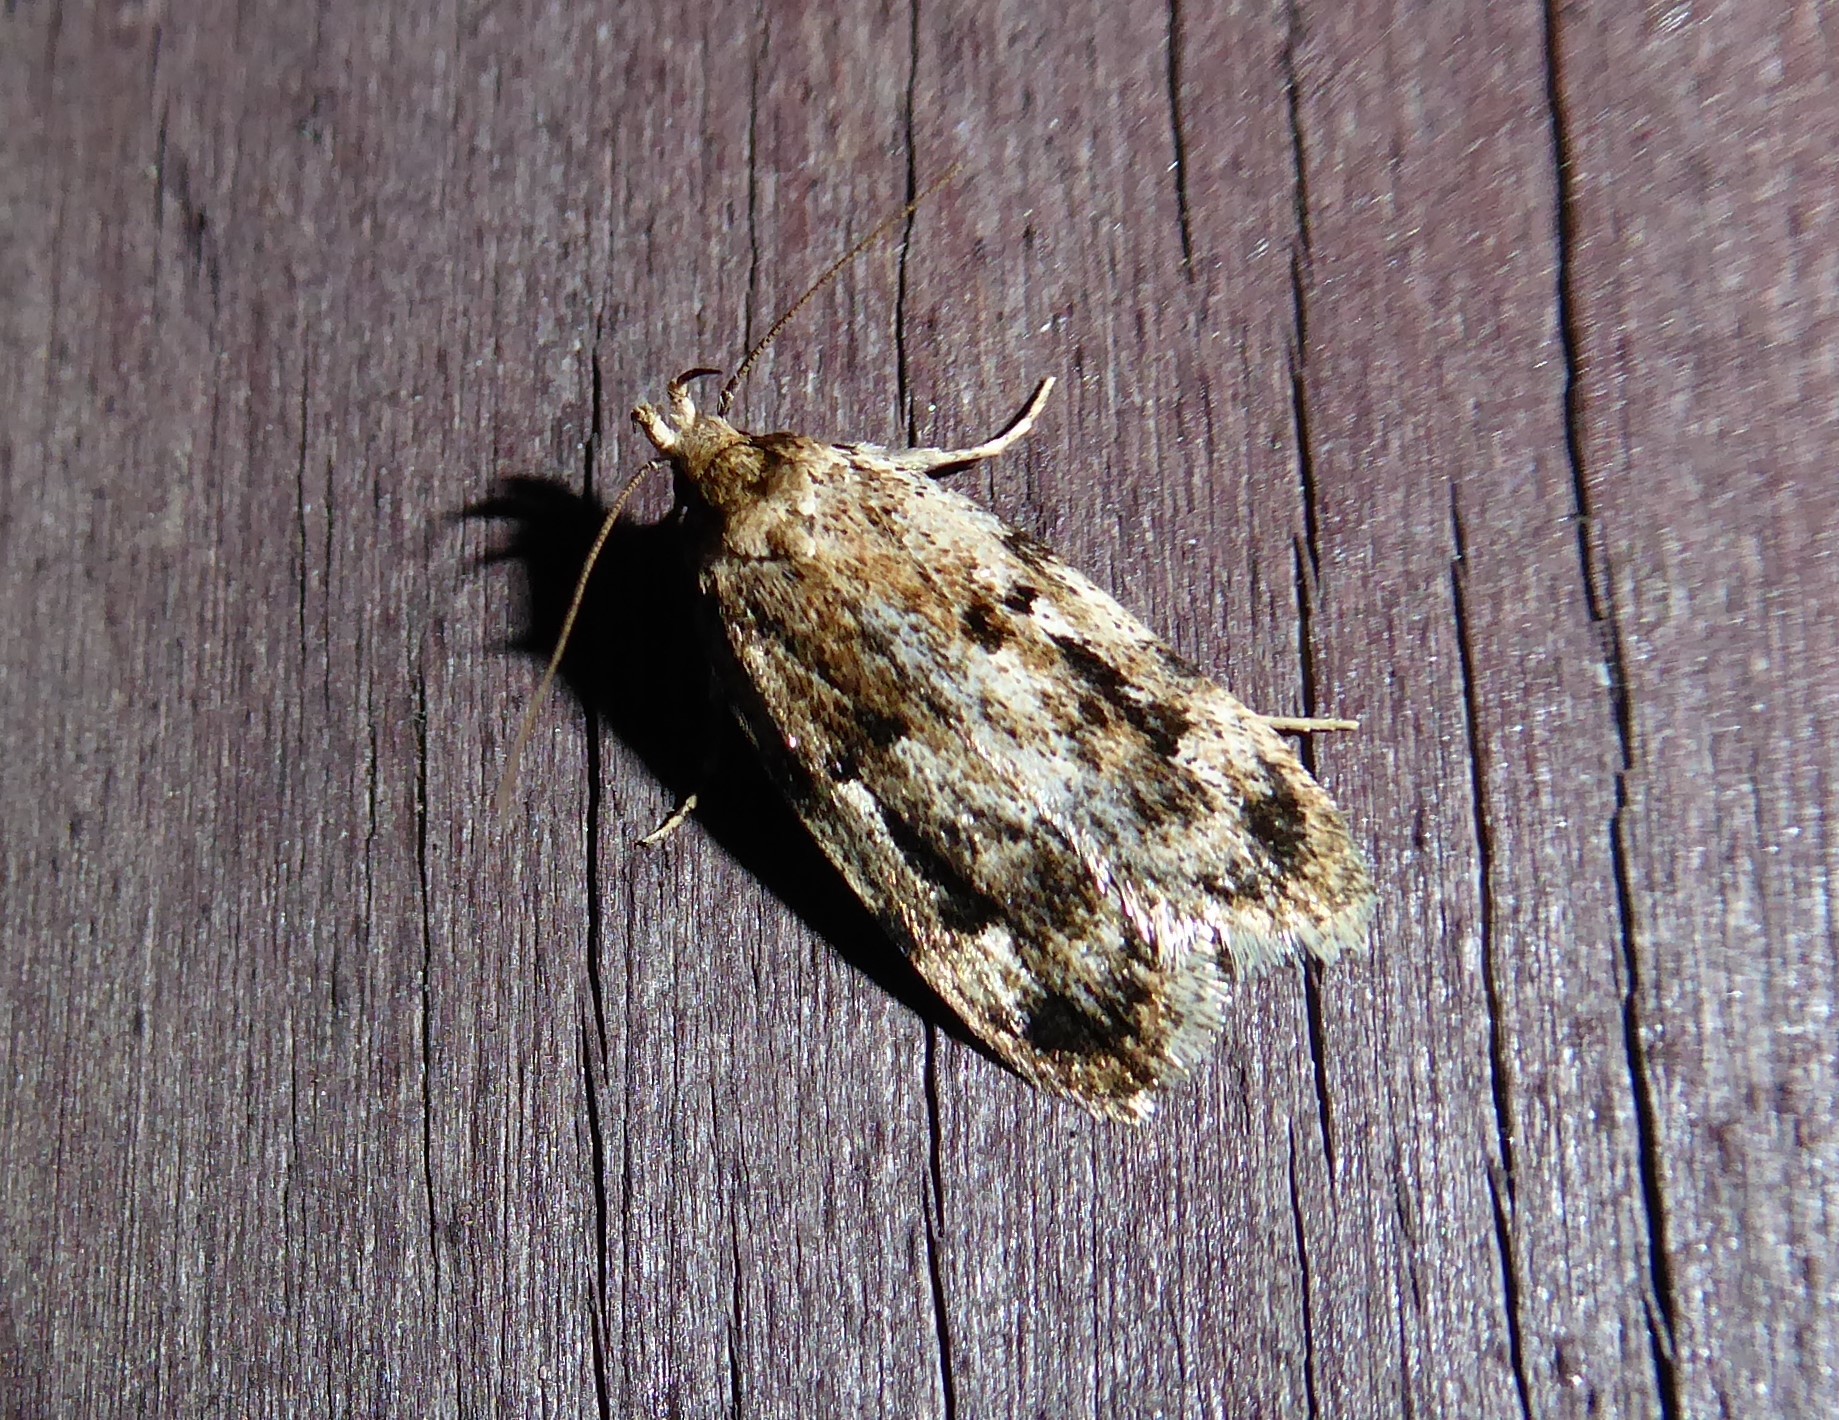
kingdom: Animalia
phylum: Arthropoda
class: Insecta
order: Lepidoptera
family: Oecophoridae
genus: Barea
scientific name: Barea exarcha
